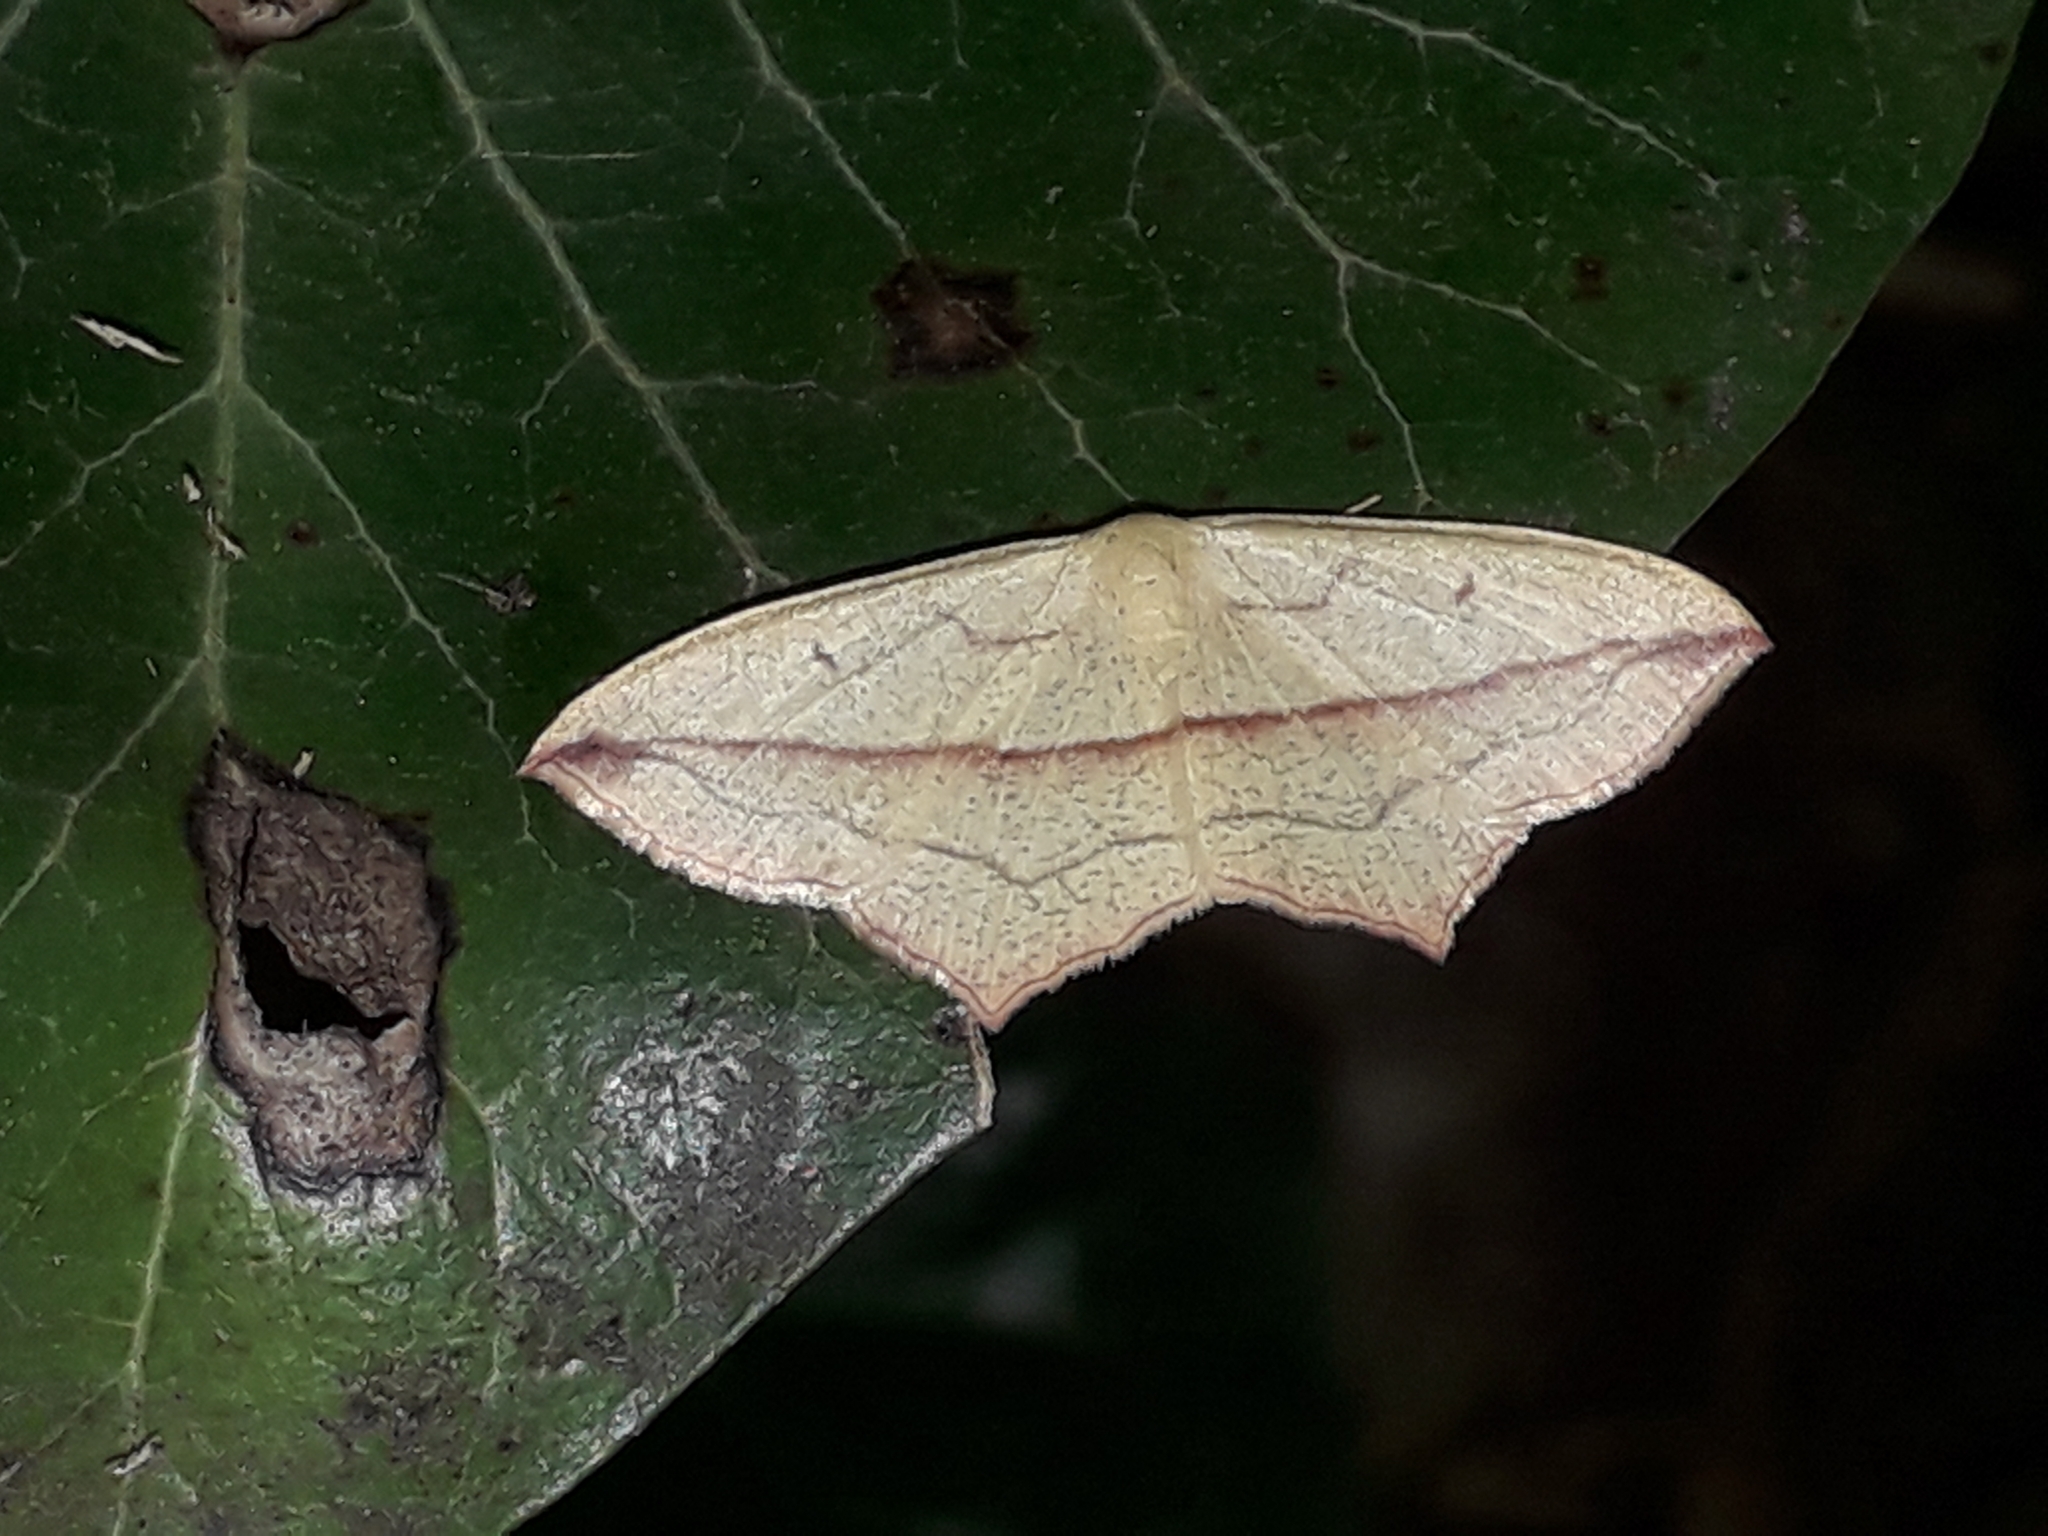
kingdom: Animalia
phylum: Arthropoda
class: Insecta
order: Lepidoptera
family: Geometridae
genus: Timandra
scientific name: Timandra comae
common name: Blood-vein
